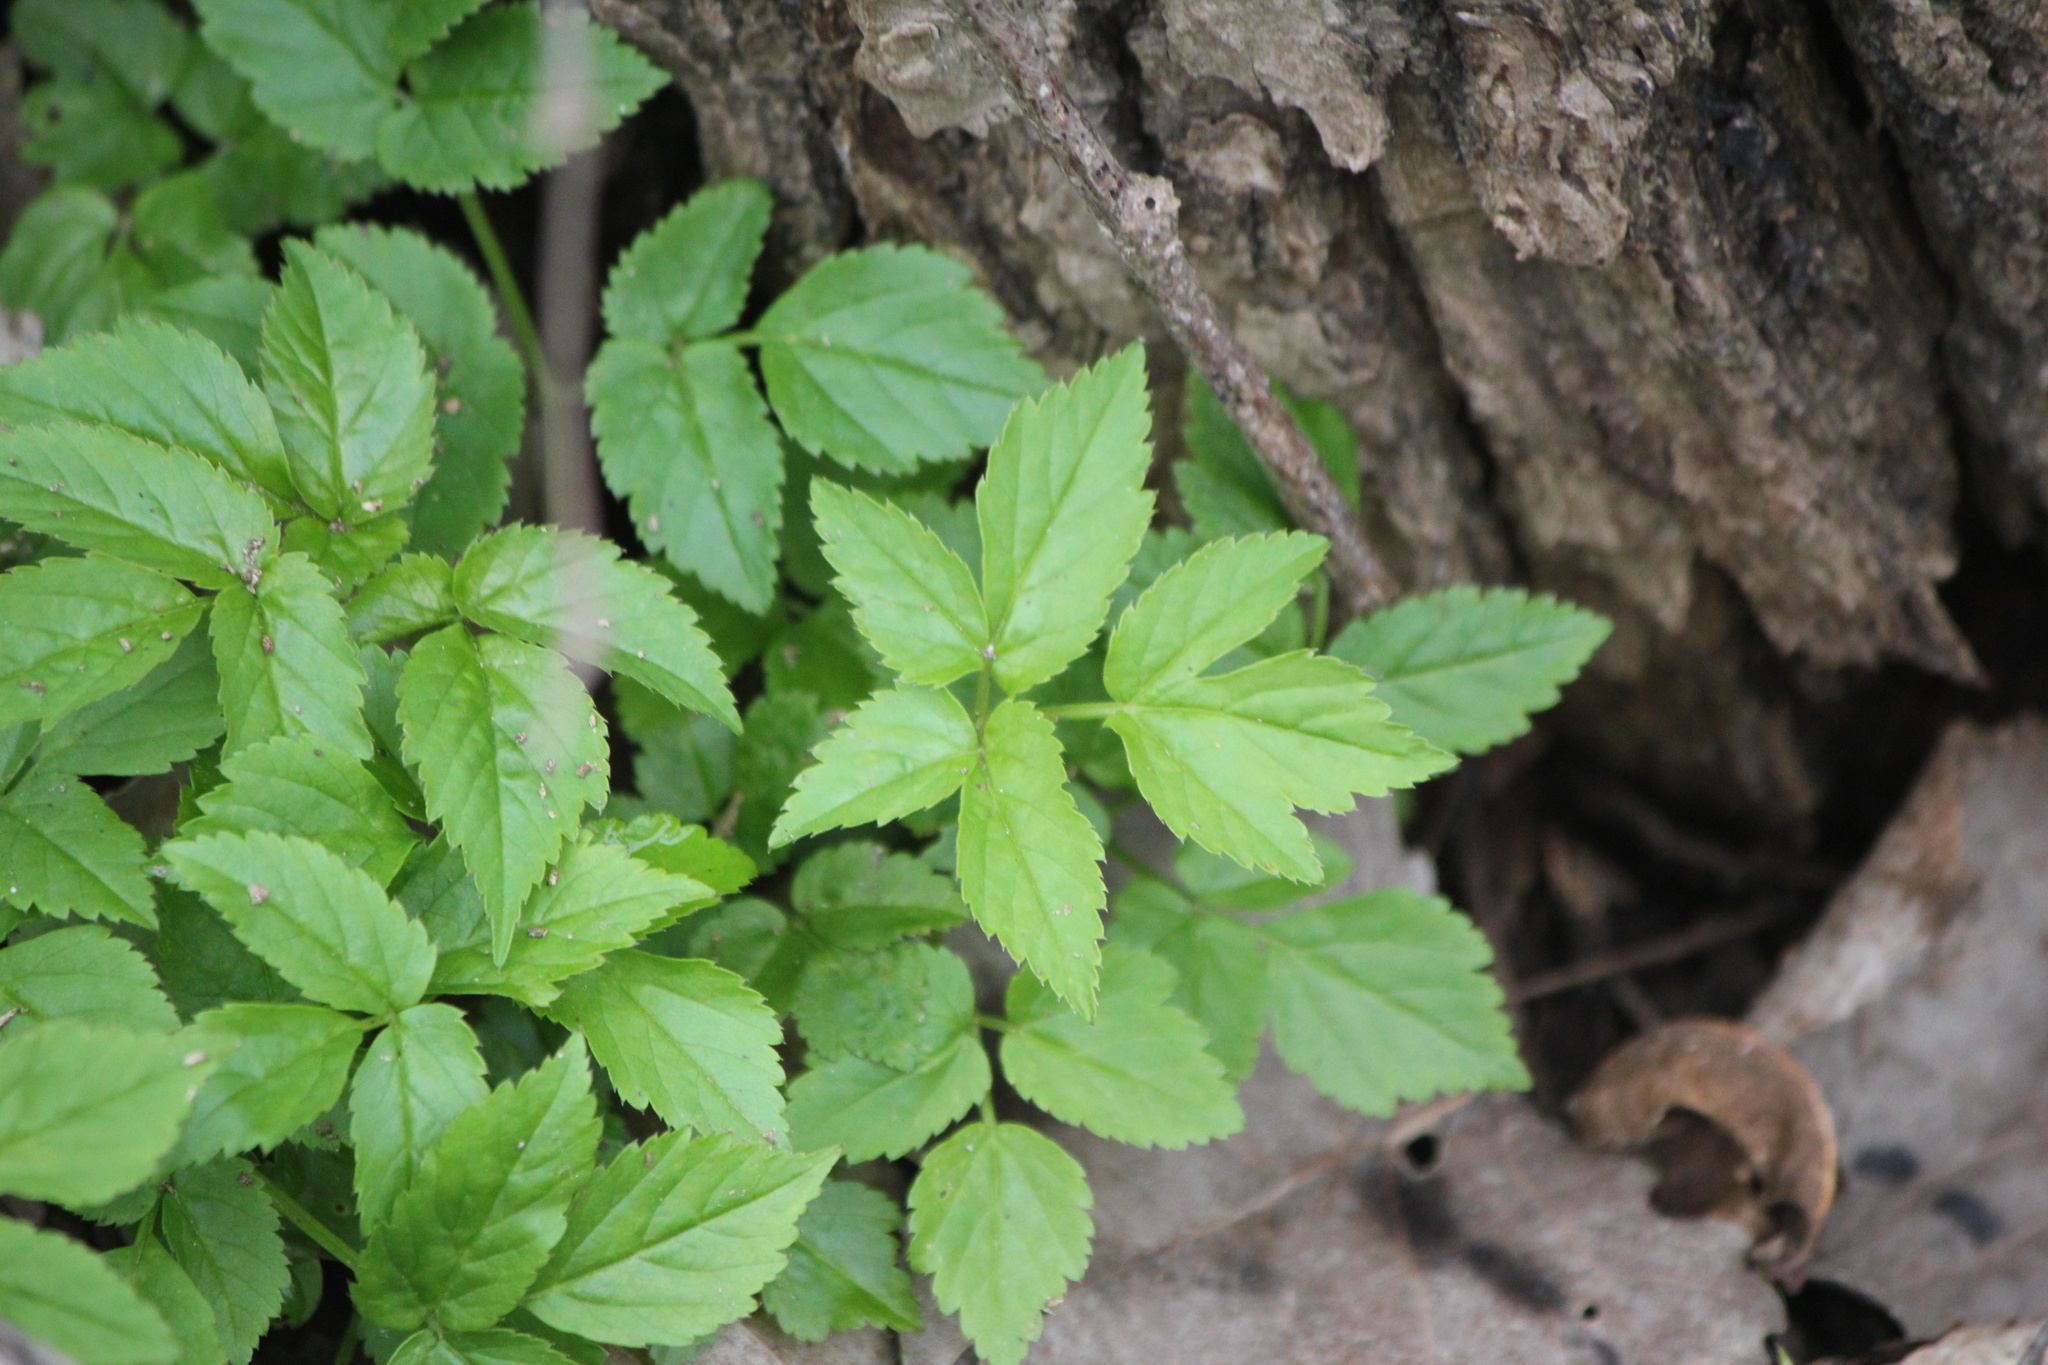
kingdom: Plantae
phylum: Tracheophyta
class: Magnoliopsida
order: Apiales
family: Apiaceae
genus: Aegopodium
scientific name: Aegopodium podagraria
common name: Ground-elder
